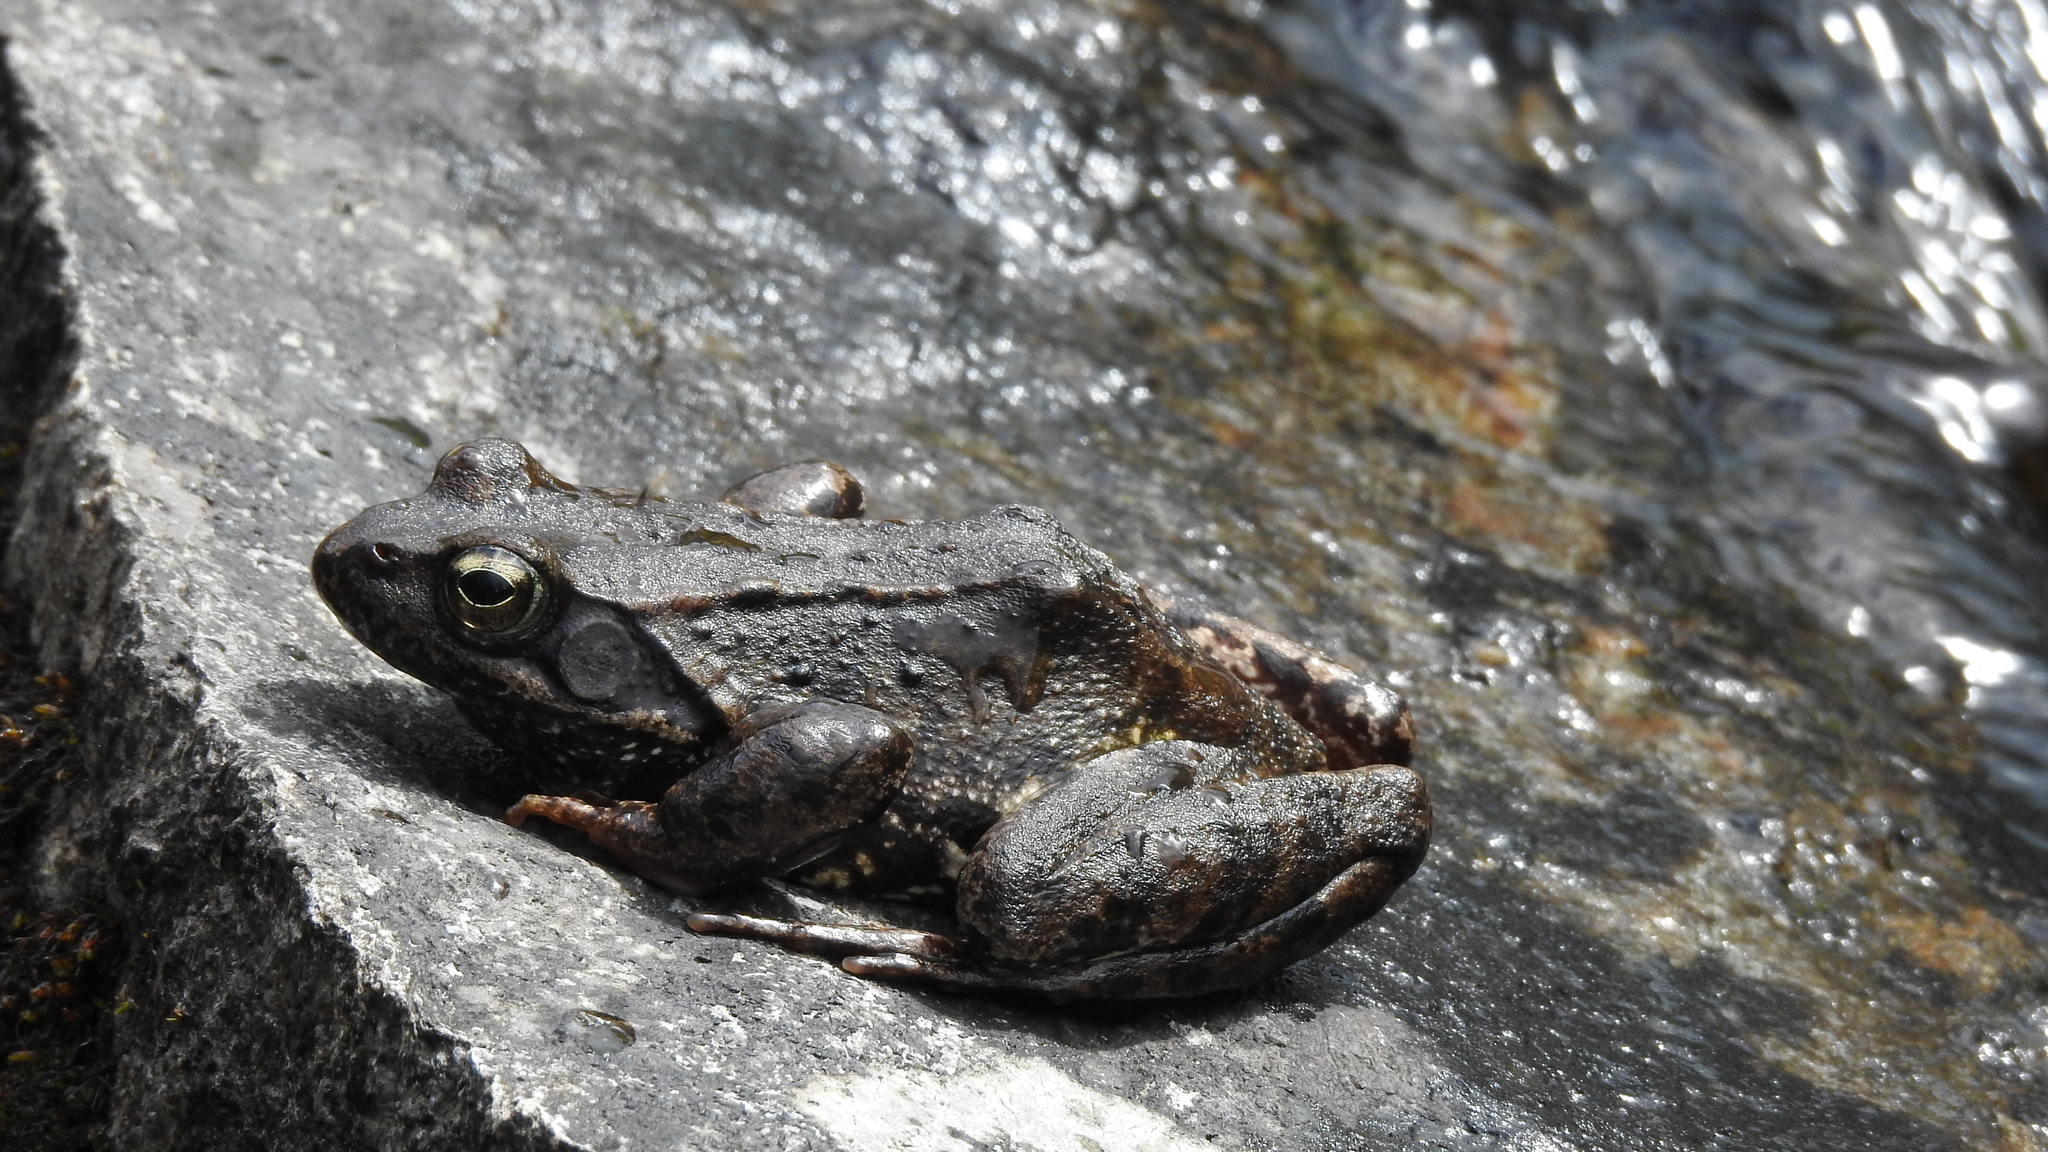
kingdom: Animalia
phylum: Chordata
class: Amphibia
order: Anura
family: Ranidae
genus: Rana
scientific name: Rana temporaria
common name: Common frog
